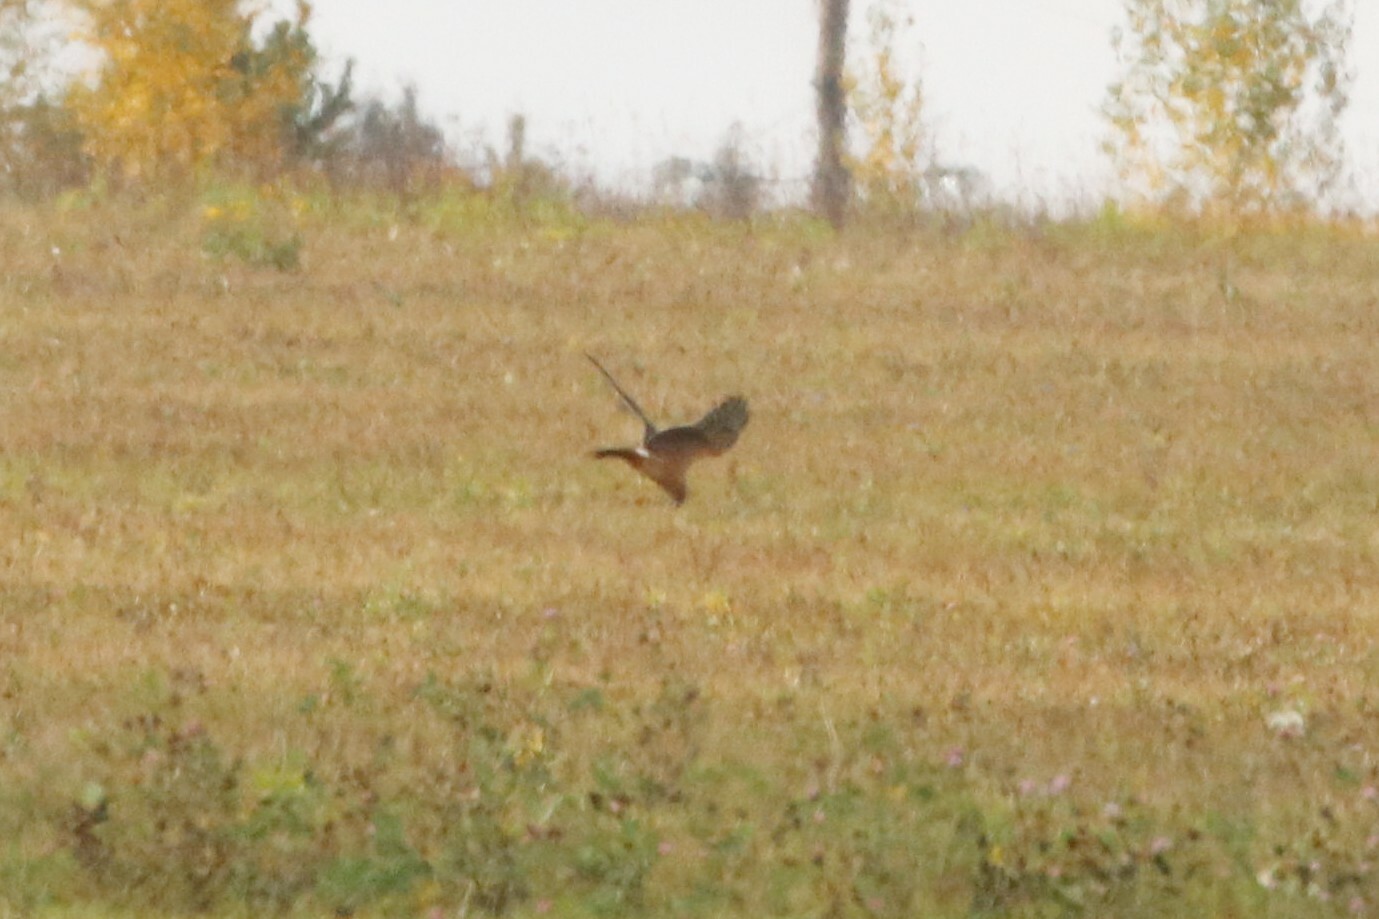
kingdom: Animalia
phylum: Chordata
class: Aves
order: Accipitriformes
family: Accipitridae
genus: Circus
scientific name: Circus cyaneus
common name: Hen harrier
